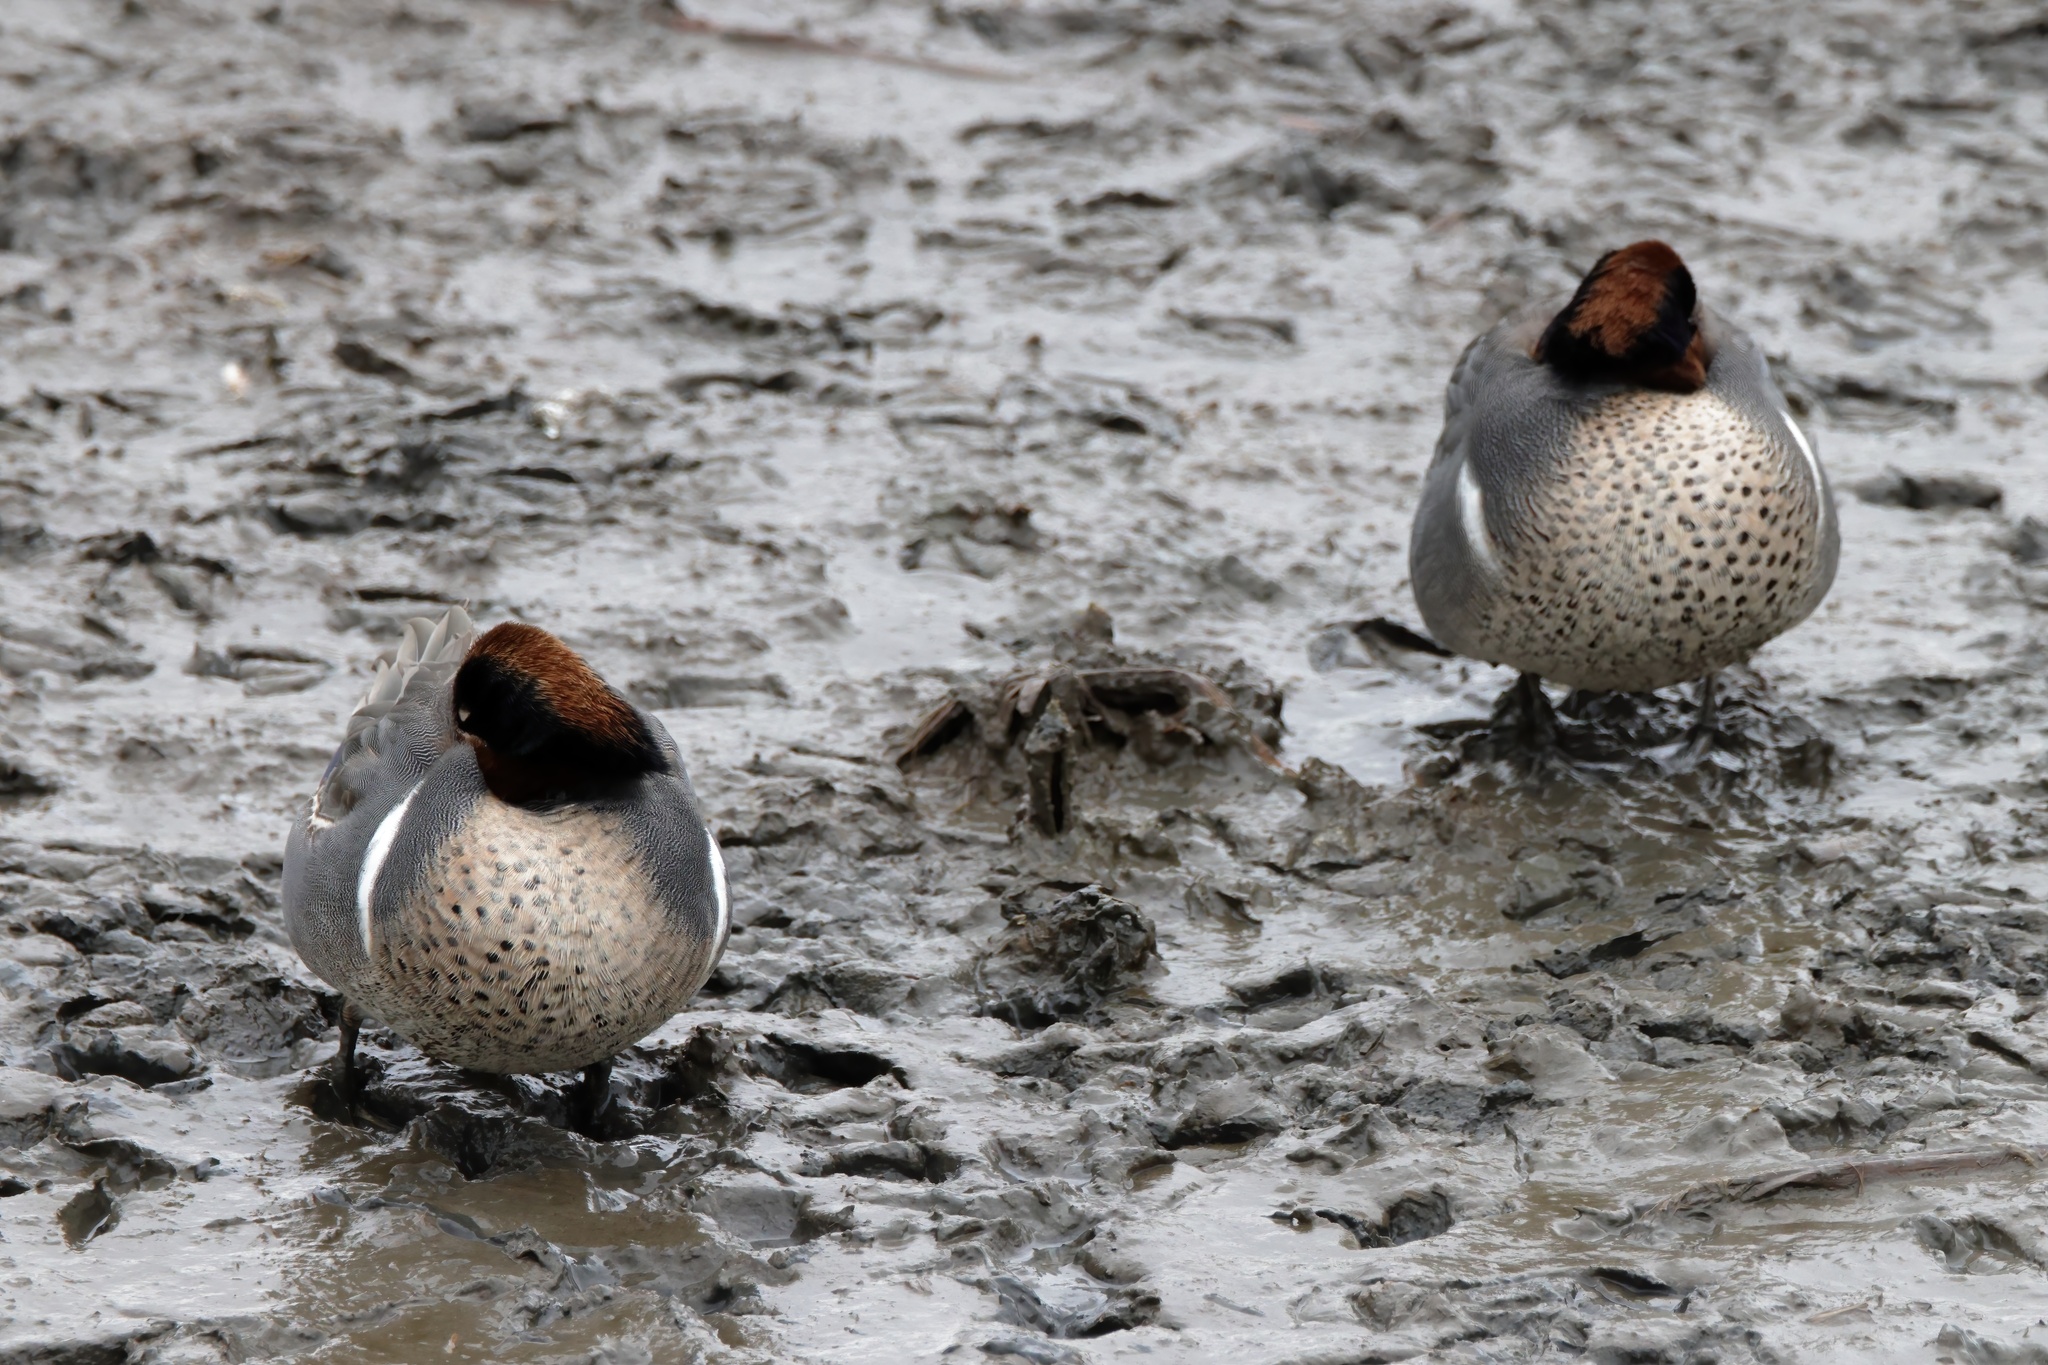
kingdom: Animalia
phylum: Chordata
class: Aves
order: Anseriformes
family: Anatidae
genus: Anas
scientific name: Anas crecca
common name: Eurasian teal
